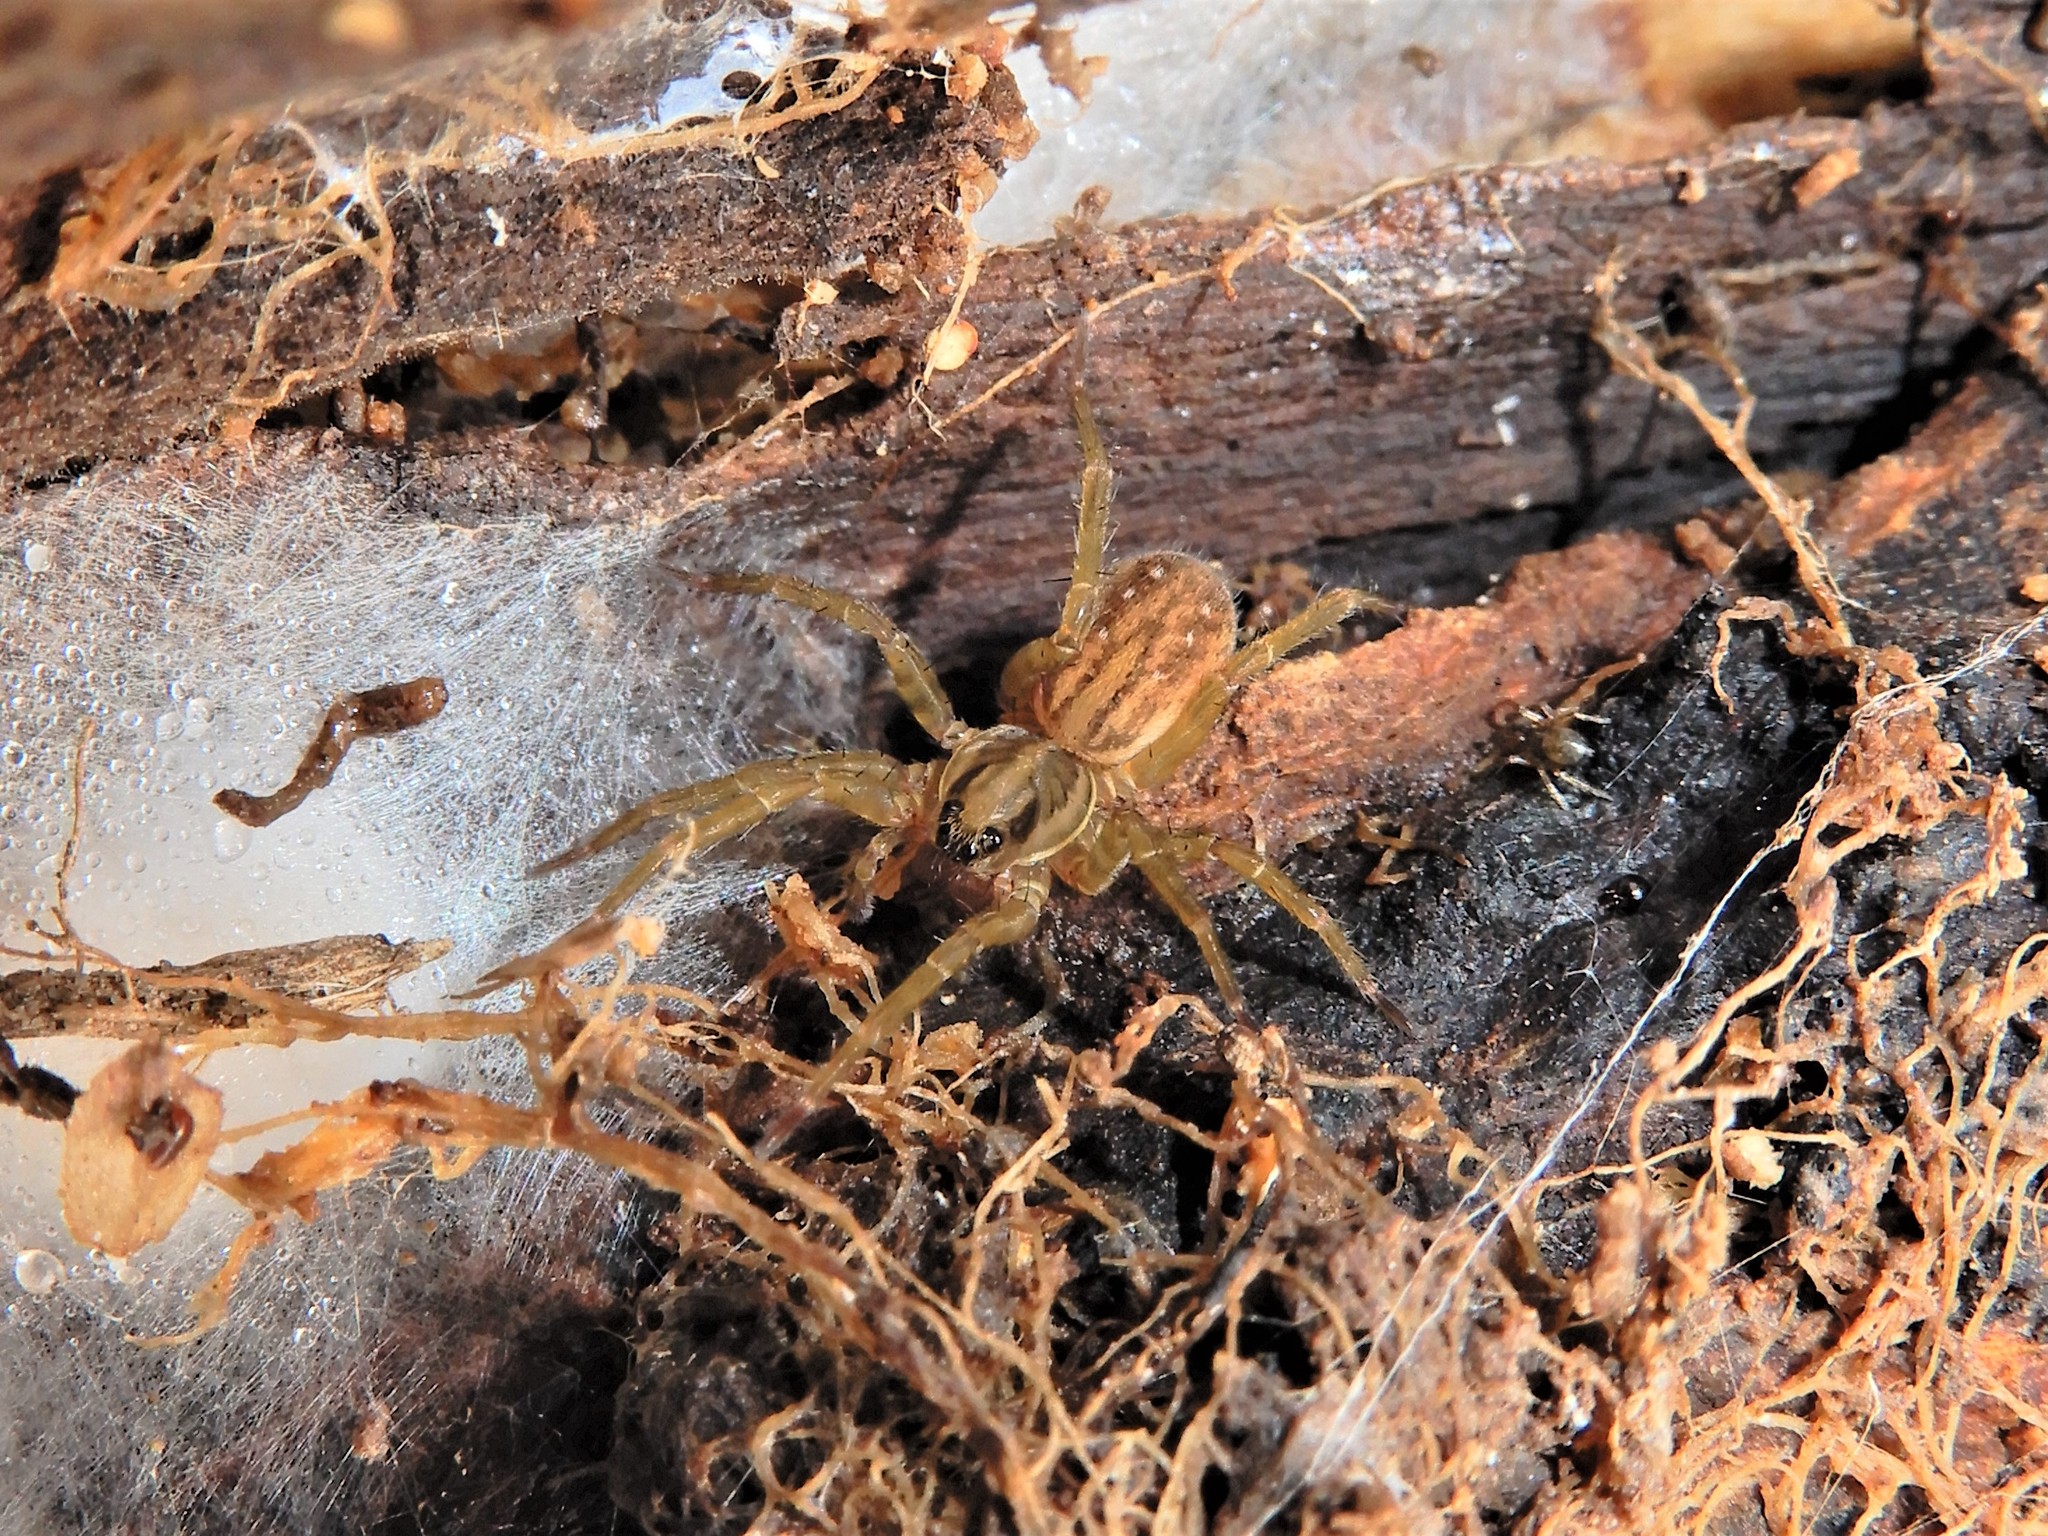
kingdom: Animalia
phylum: Arthropoda
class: Arachnida
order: Araneae
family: Lycosidae
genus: Allotrochosina
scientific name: Allotrochosina schauinslandi
